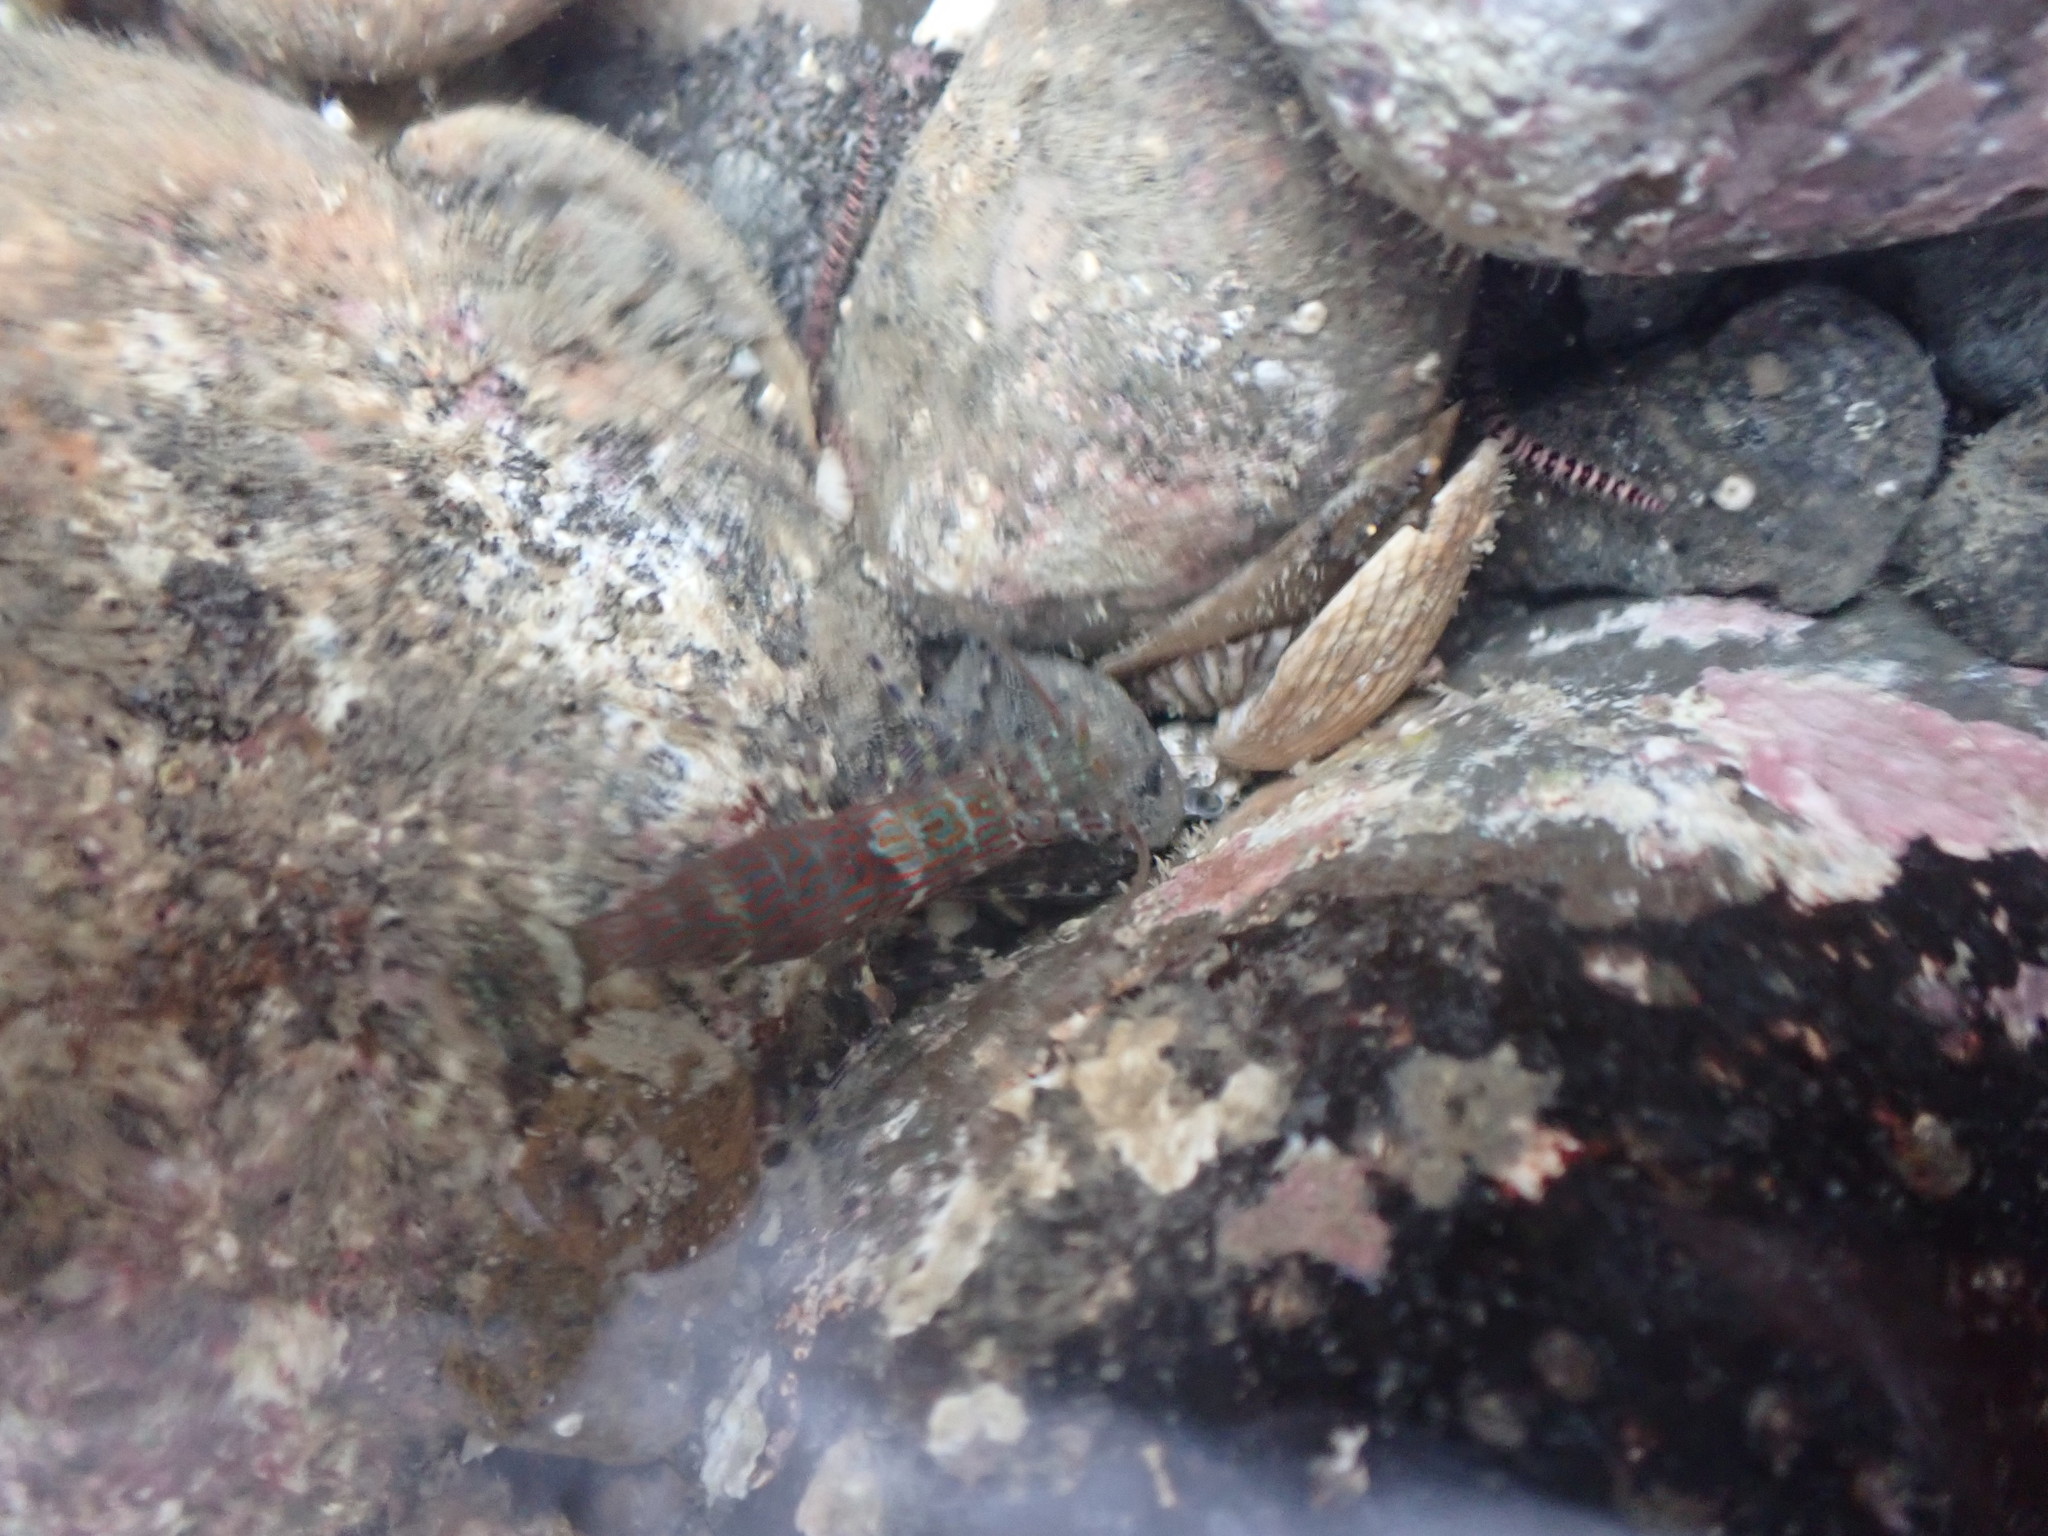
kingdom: Animalia
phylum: Arthropoda
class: Malacostraca
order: Decapoda
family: Hippolytidae
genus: Alope
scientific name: Alope spinifrons
